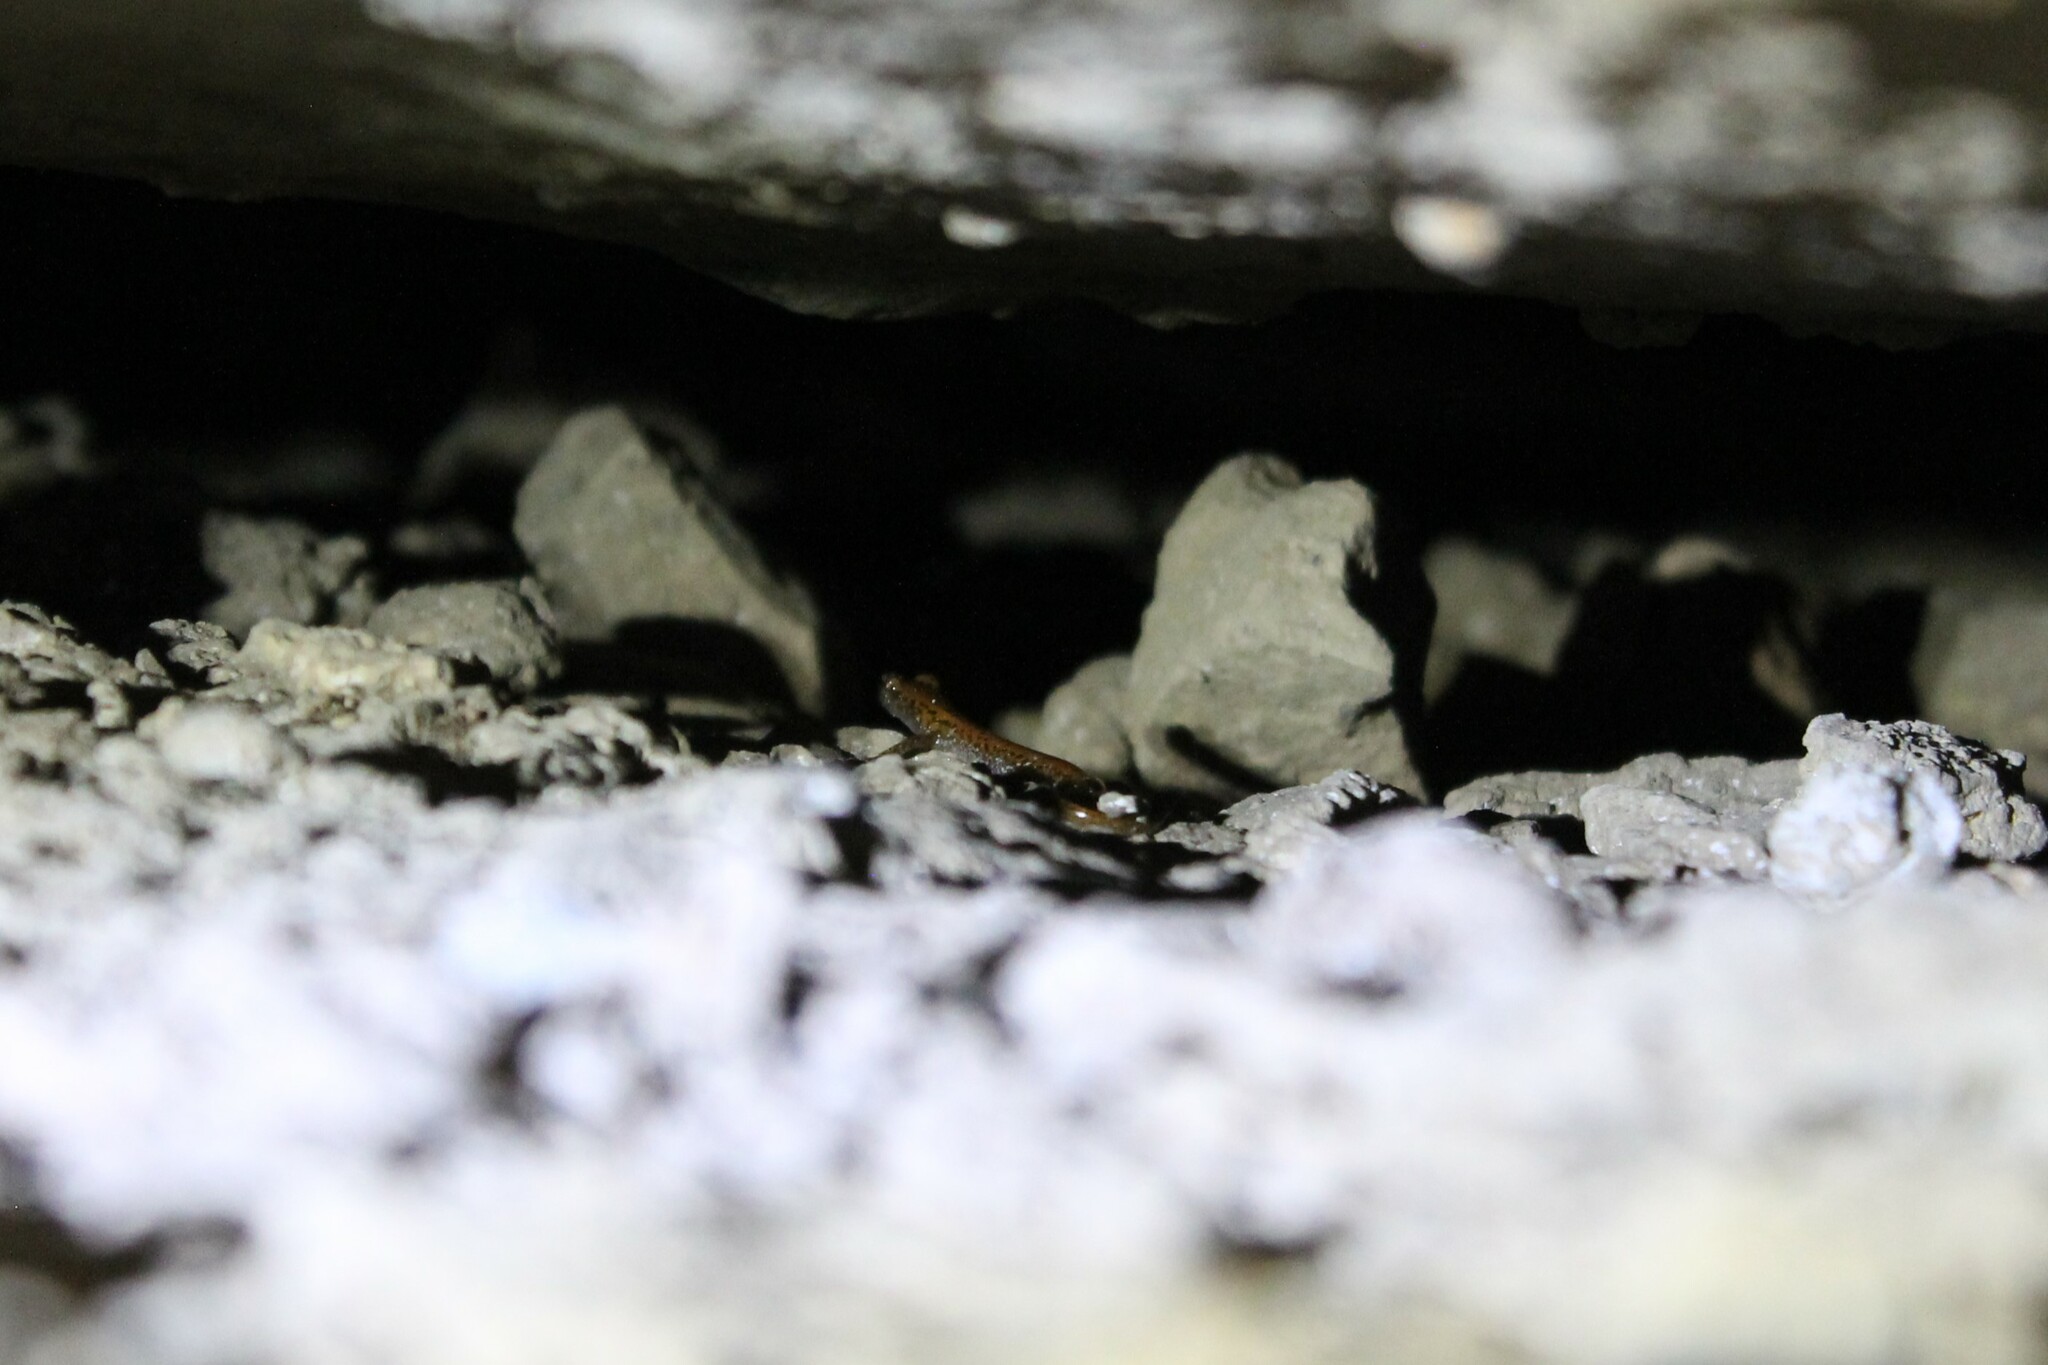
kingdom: Animalia
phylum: Chordata
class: Amphibia
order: Caudata
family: Plethodontidae
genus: Eurycea
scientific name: Eurycea lucifuga
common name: Cave salamander
